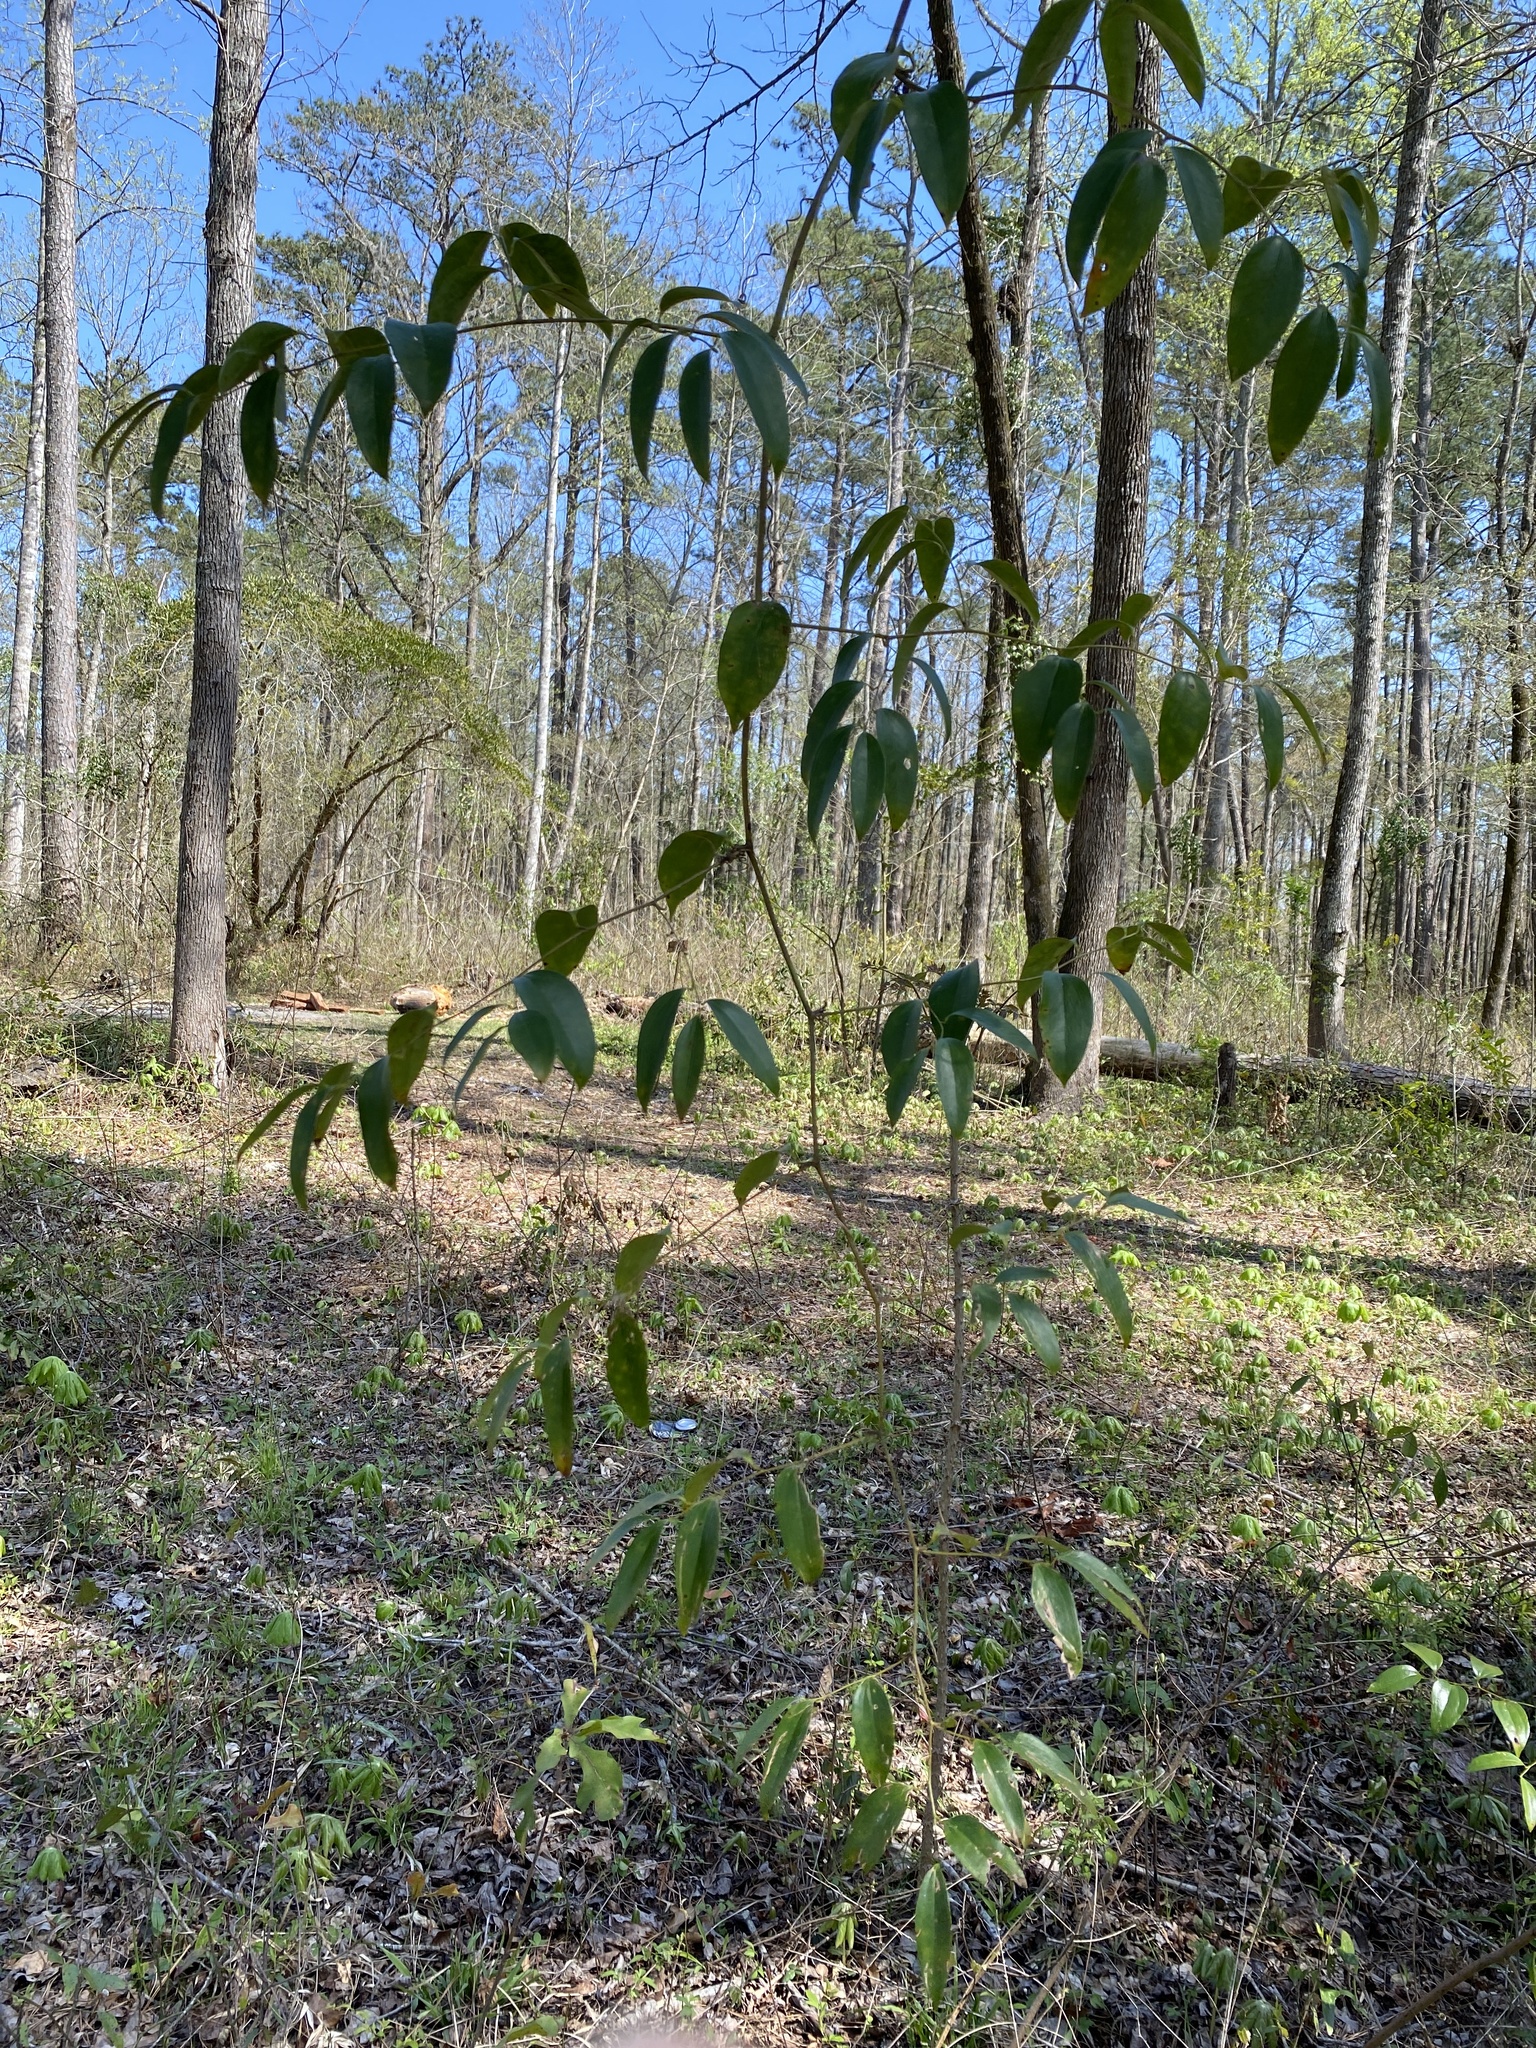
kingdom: Plantae
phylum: Tracheophyta
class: Liliopsida
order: Liliales
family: Smilacaceae
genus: Smilax
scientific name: Smilax maritima
